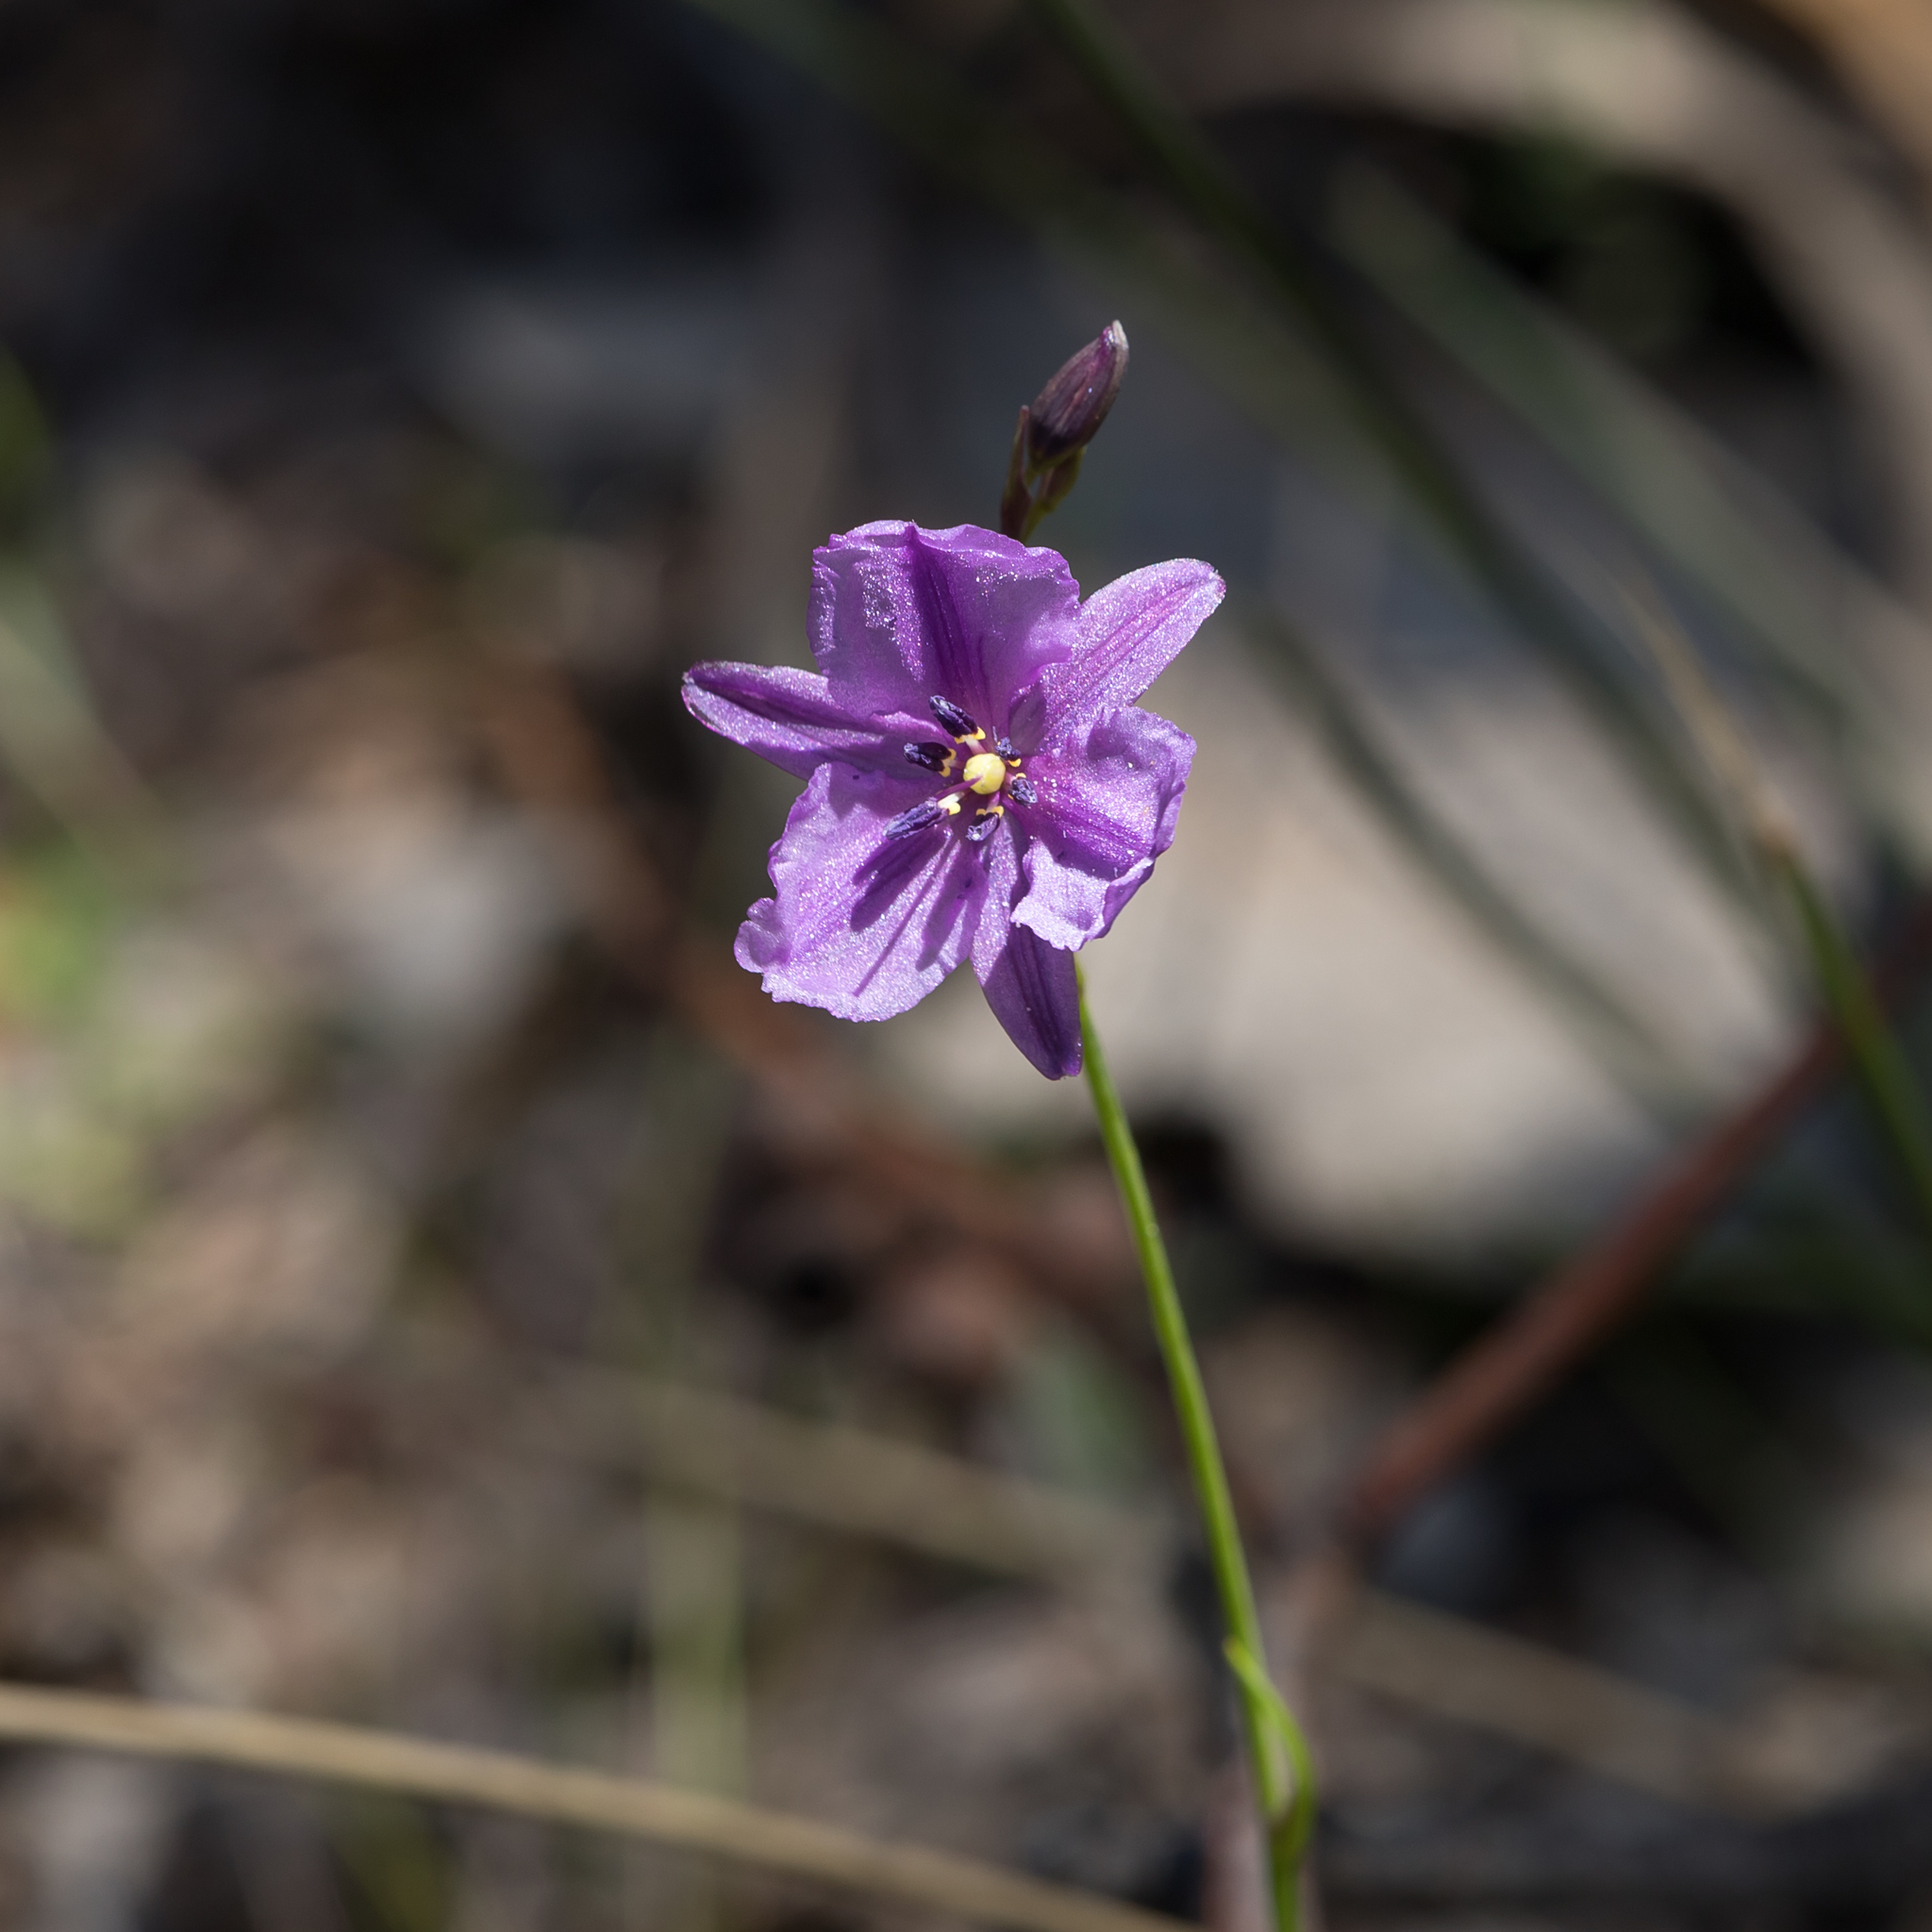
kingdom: Plantae
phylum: Tracheophyta
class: Liliopsida
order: Asparagales
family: Asparagaceae
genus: Arthropodium
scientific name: Arthropodium strictum
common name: Chocolate-lily
